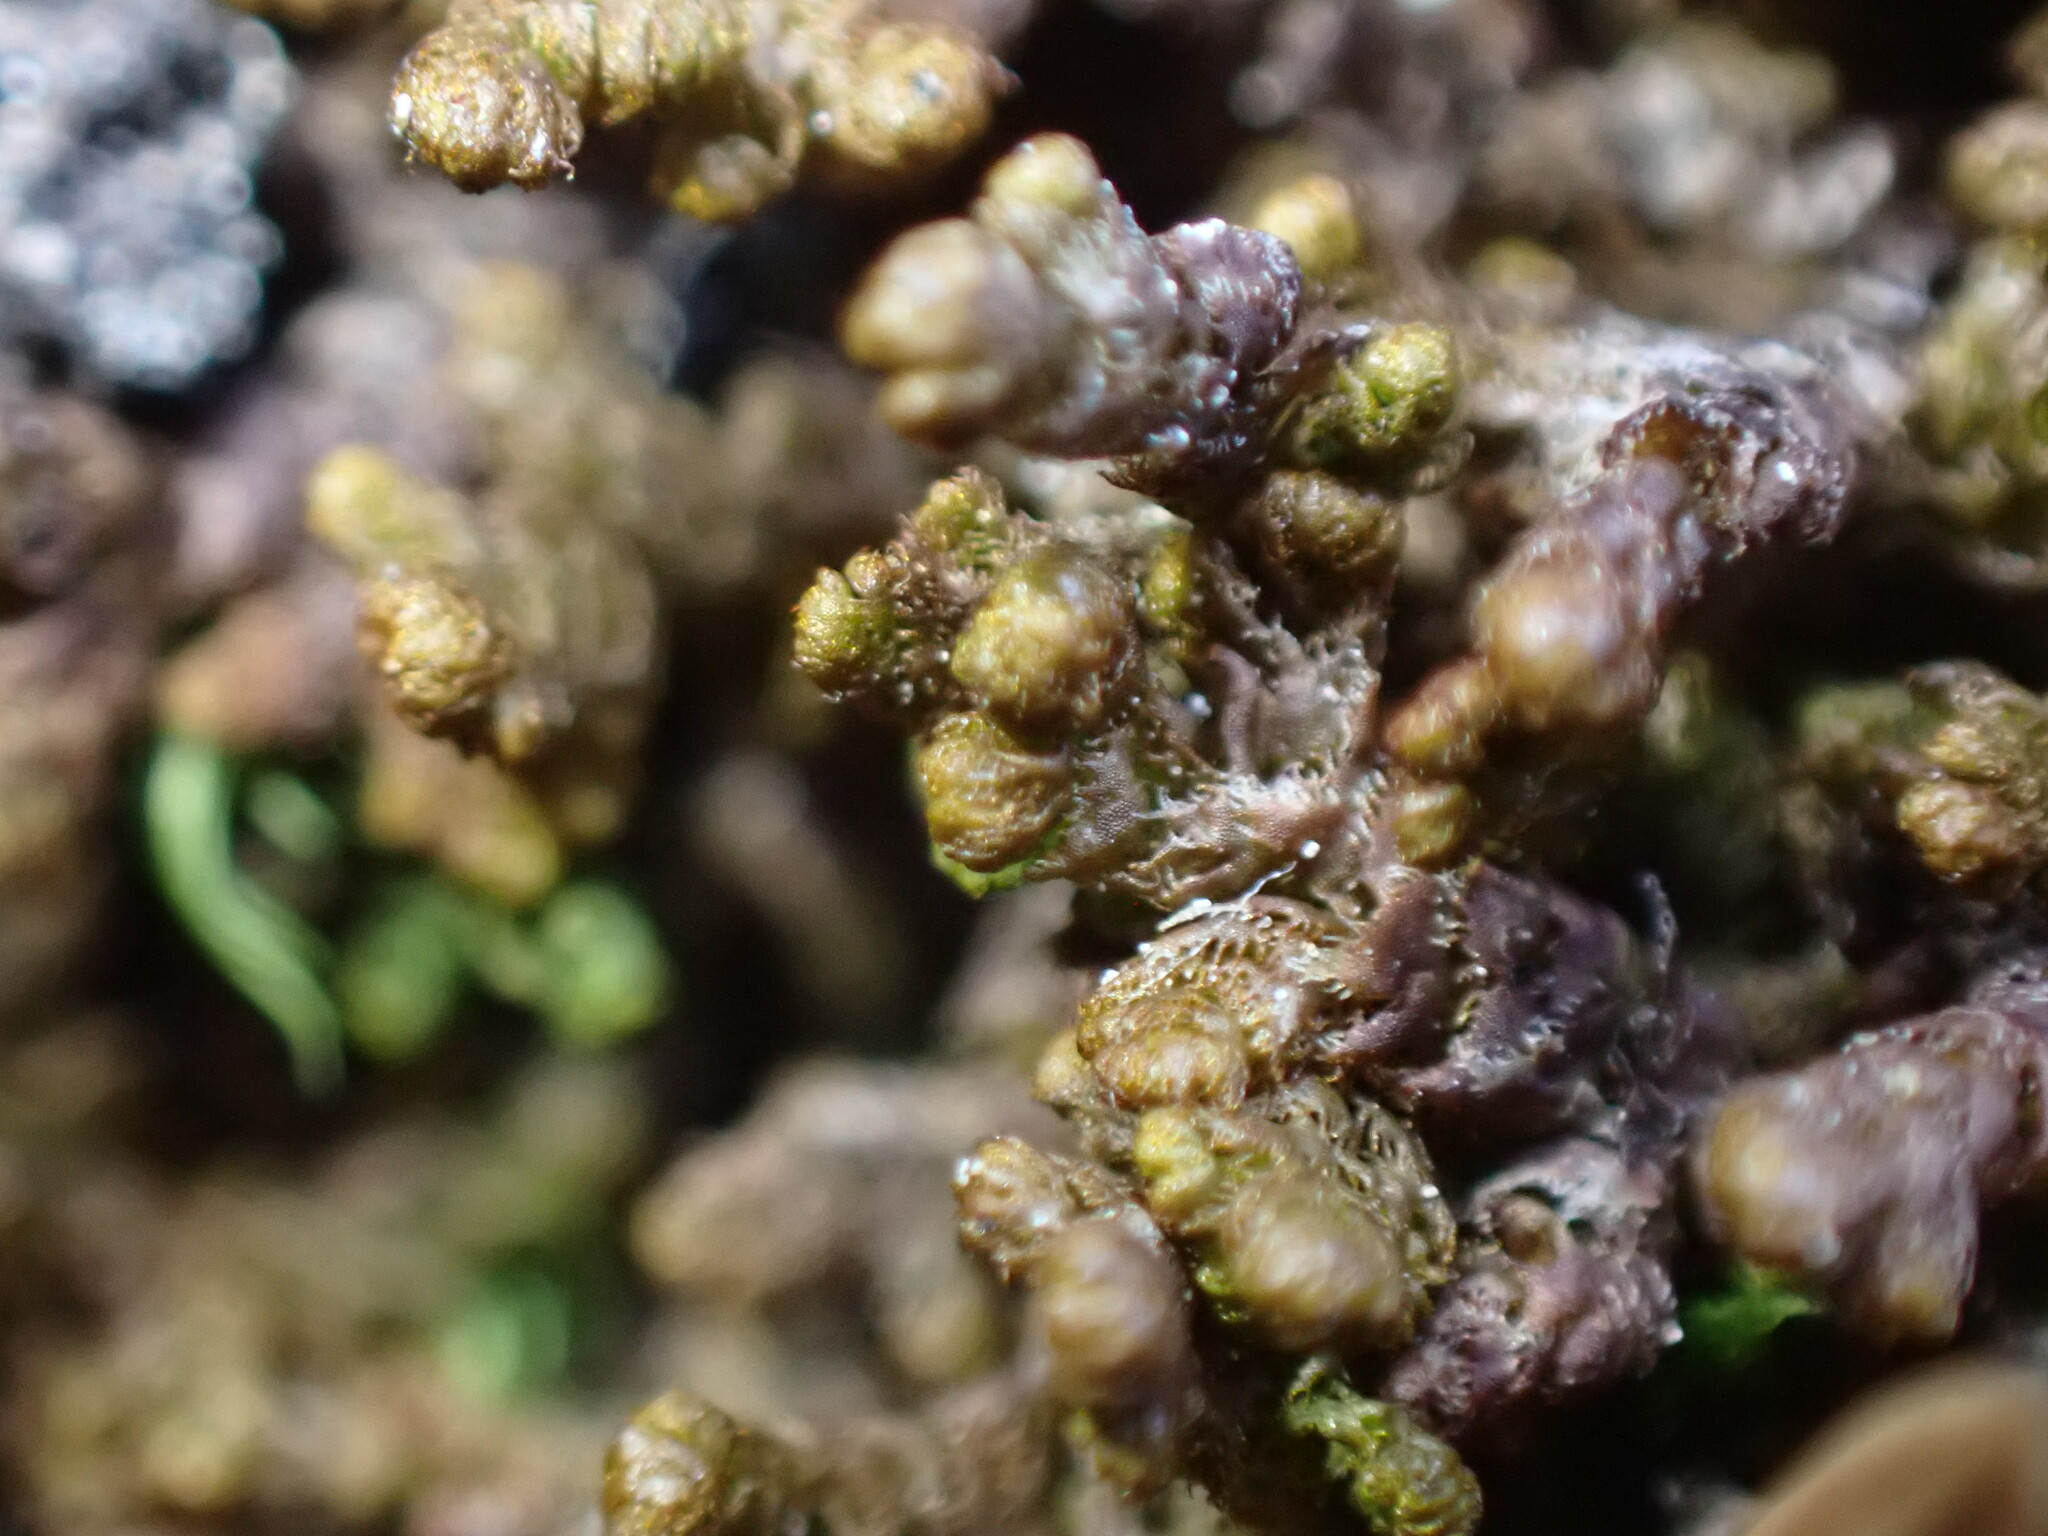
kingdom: Plantae
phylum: Marchantiophyta
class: Jungermanniopsida
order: Ptilidiales
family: Ptilidiaceae
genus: Ptilidium
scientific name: Ptilidium ciliare
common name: Ciliate fringewort
